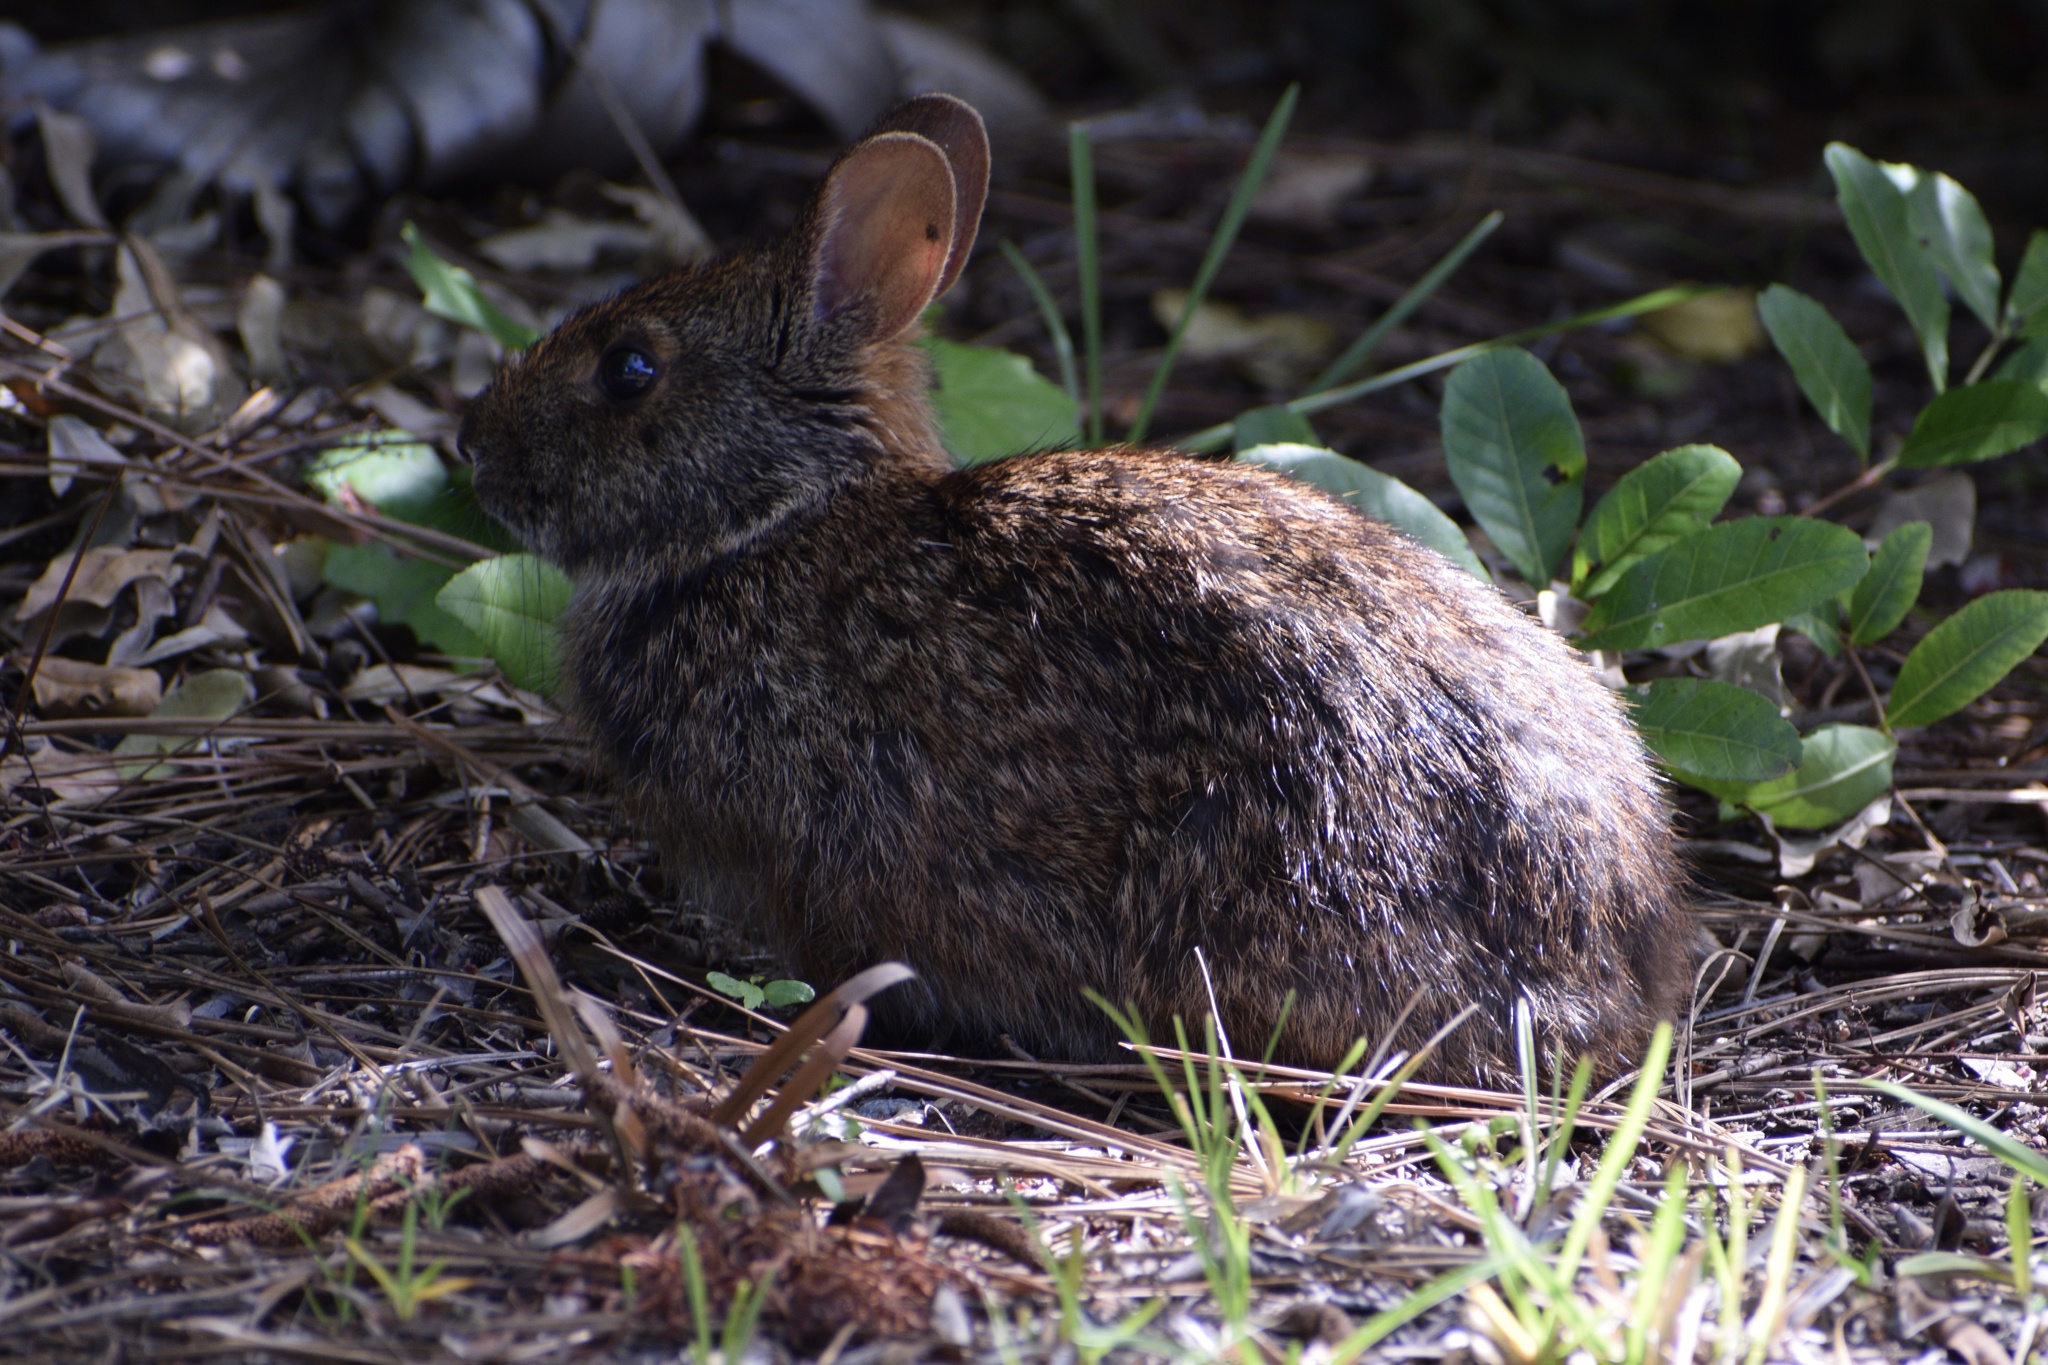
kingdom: Animalia
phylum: Chordata
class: Mammalia
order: Lagomorpha
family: Leporidae
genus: Sylvilagus
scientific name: Sylvilagus palustris
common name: Marsh rabbit
